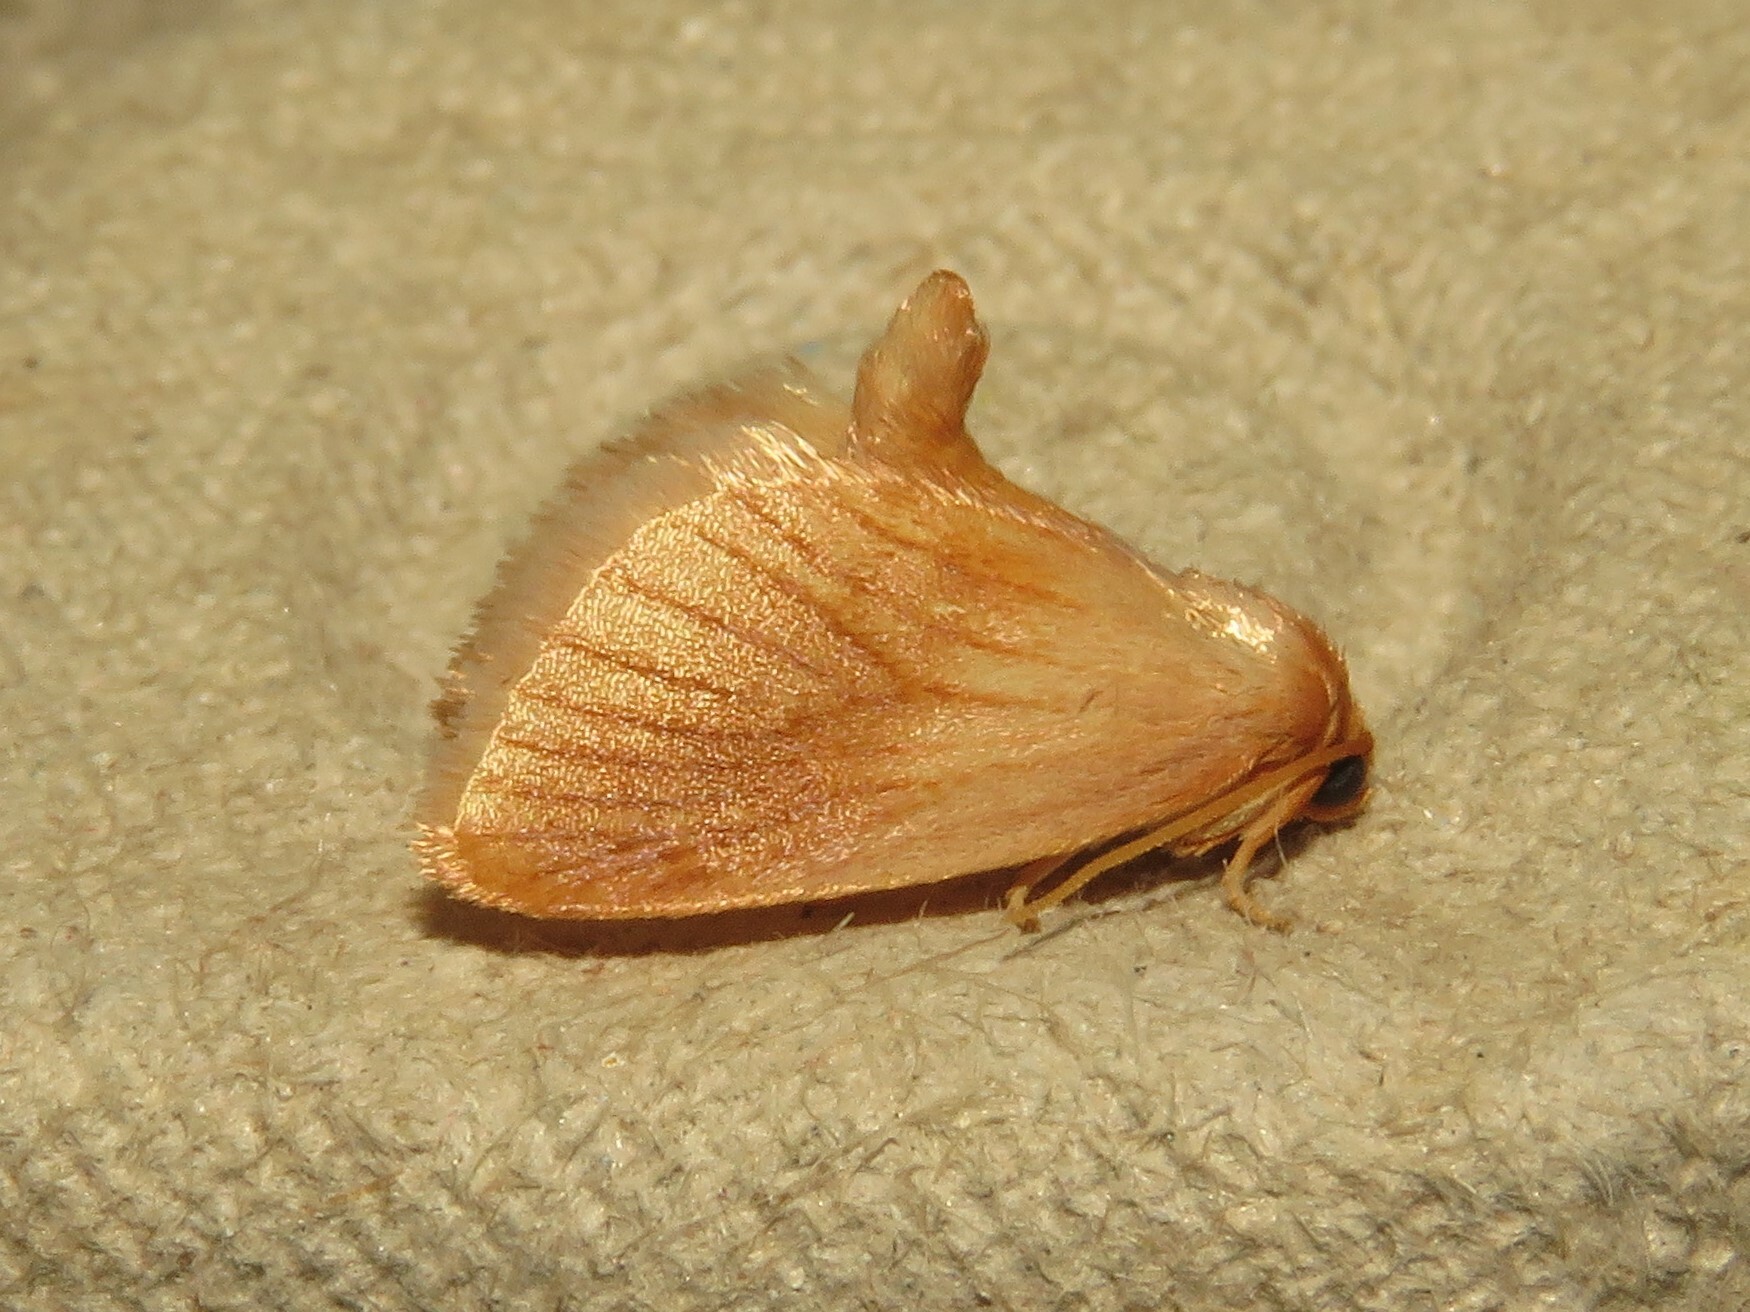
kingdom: Animalia
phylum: Arthropoda
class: Insecta
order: Lepidoptera
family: Limacodidae
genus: Tortricidia
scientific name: Tortricidia testacea
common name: Early button slug moth
